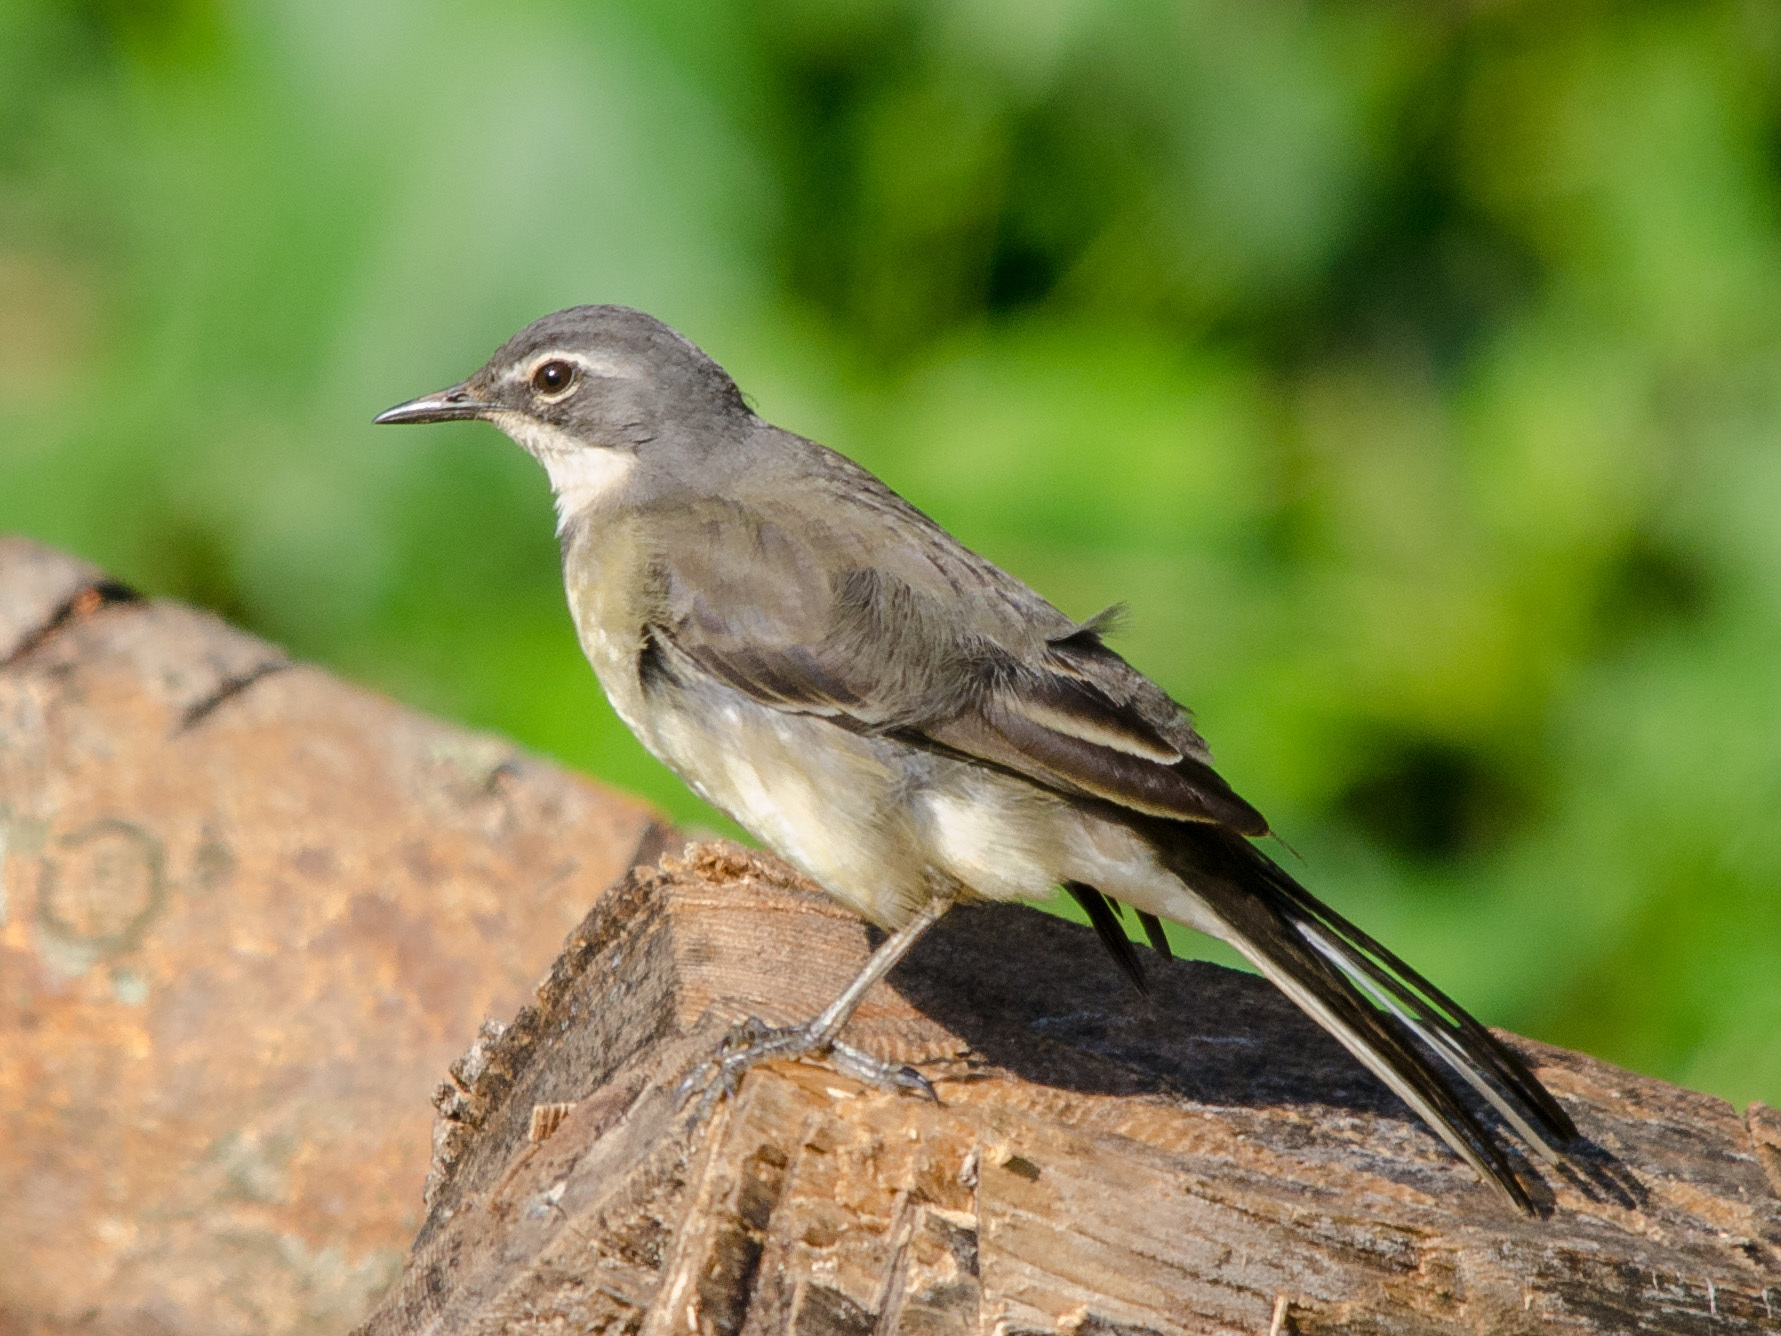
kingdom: Animalia
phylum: Chordata
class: Aves
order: Passeriformes
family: Motacillidae
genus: Motacilla
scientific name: Motacilla capensis
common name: Cape wagtail
